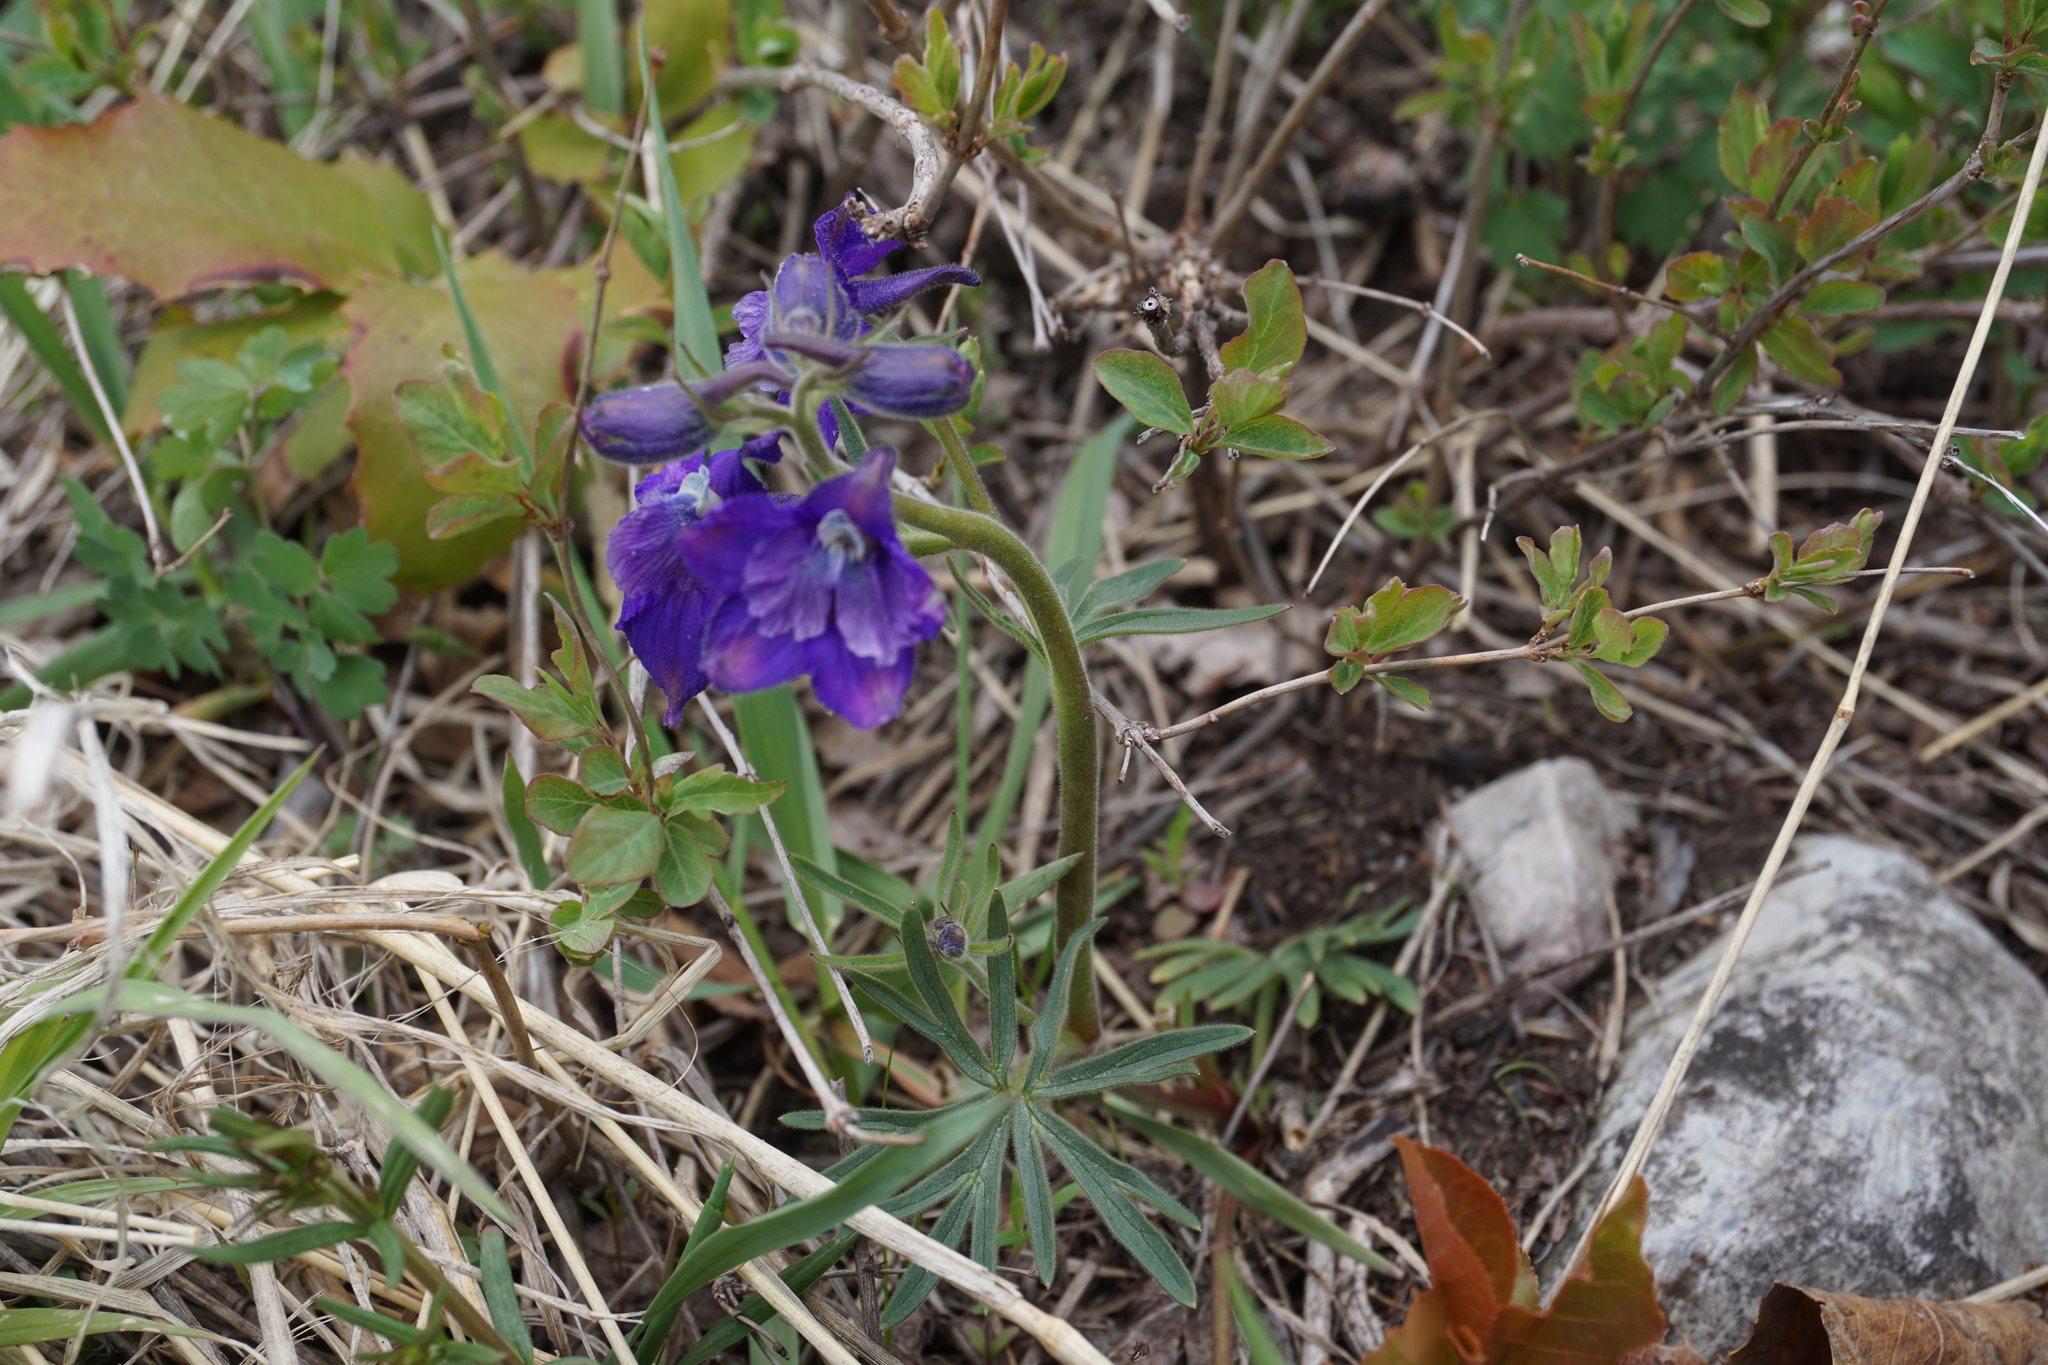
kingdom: Plantae
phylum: Tracheophyta
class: Magnoliopsida
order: Ranunculales
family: Ranunculaceae
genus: Delphinium
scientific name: Delphinium bicolor
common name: Low larkspur
